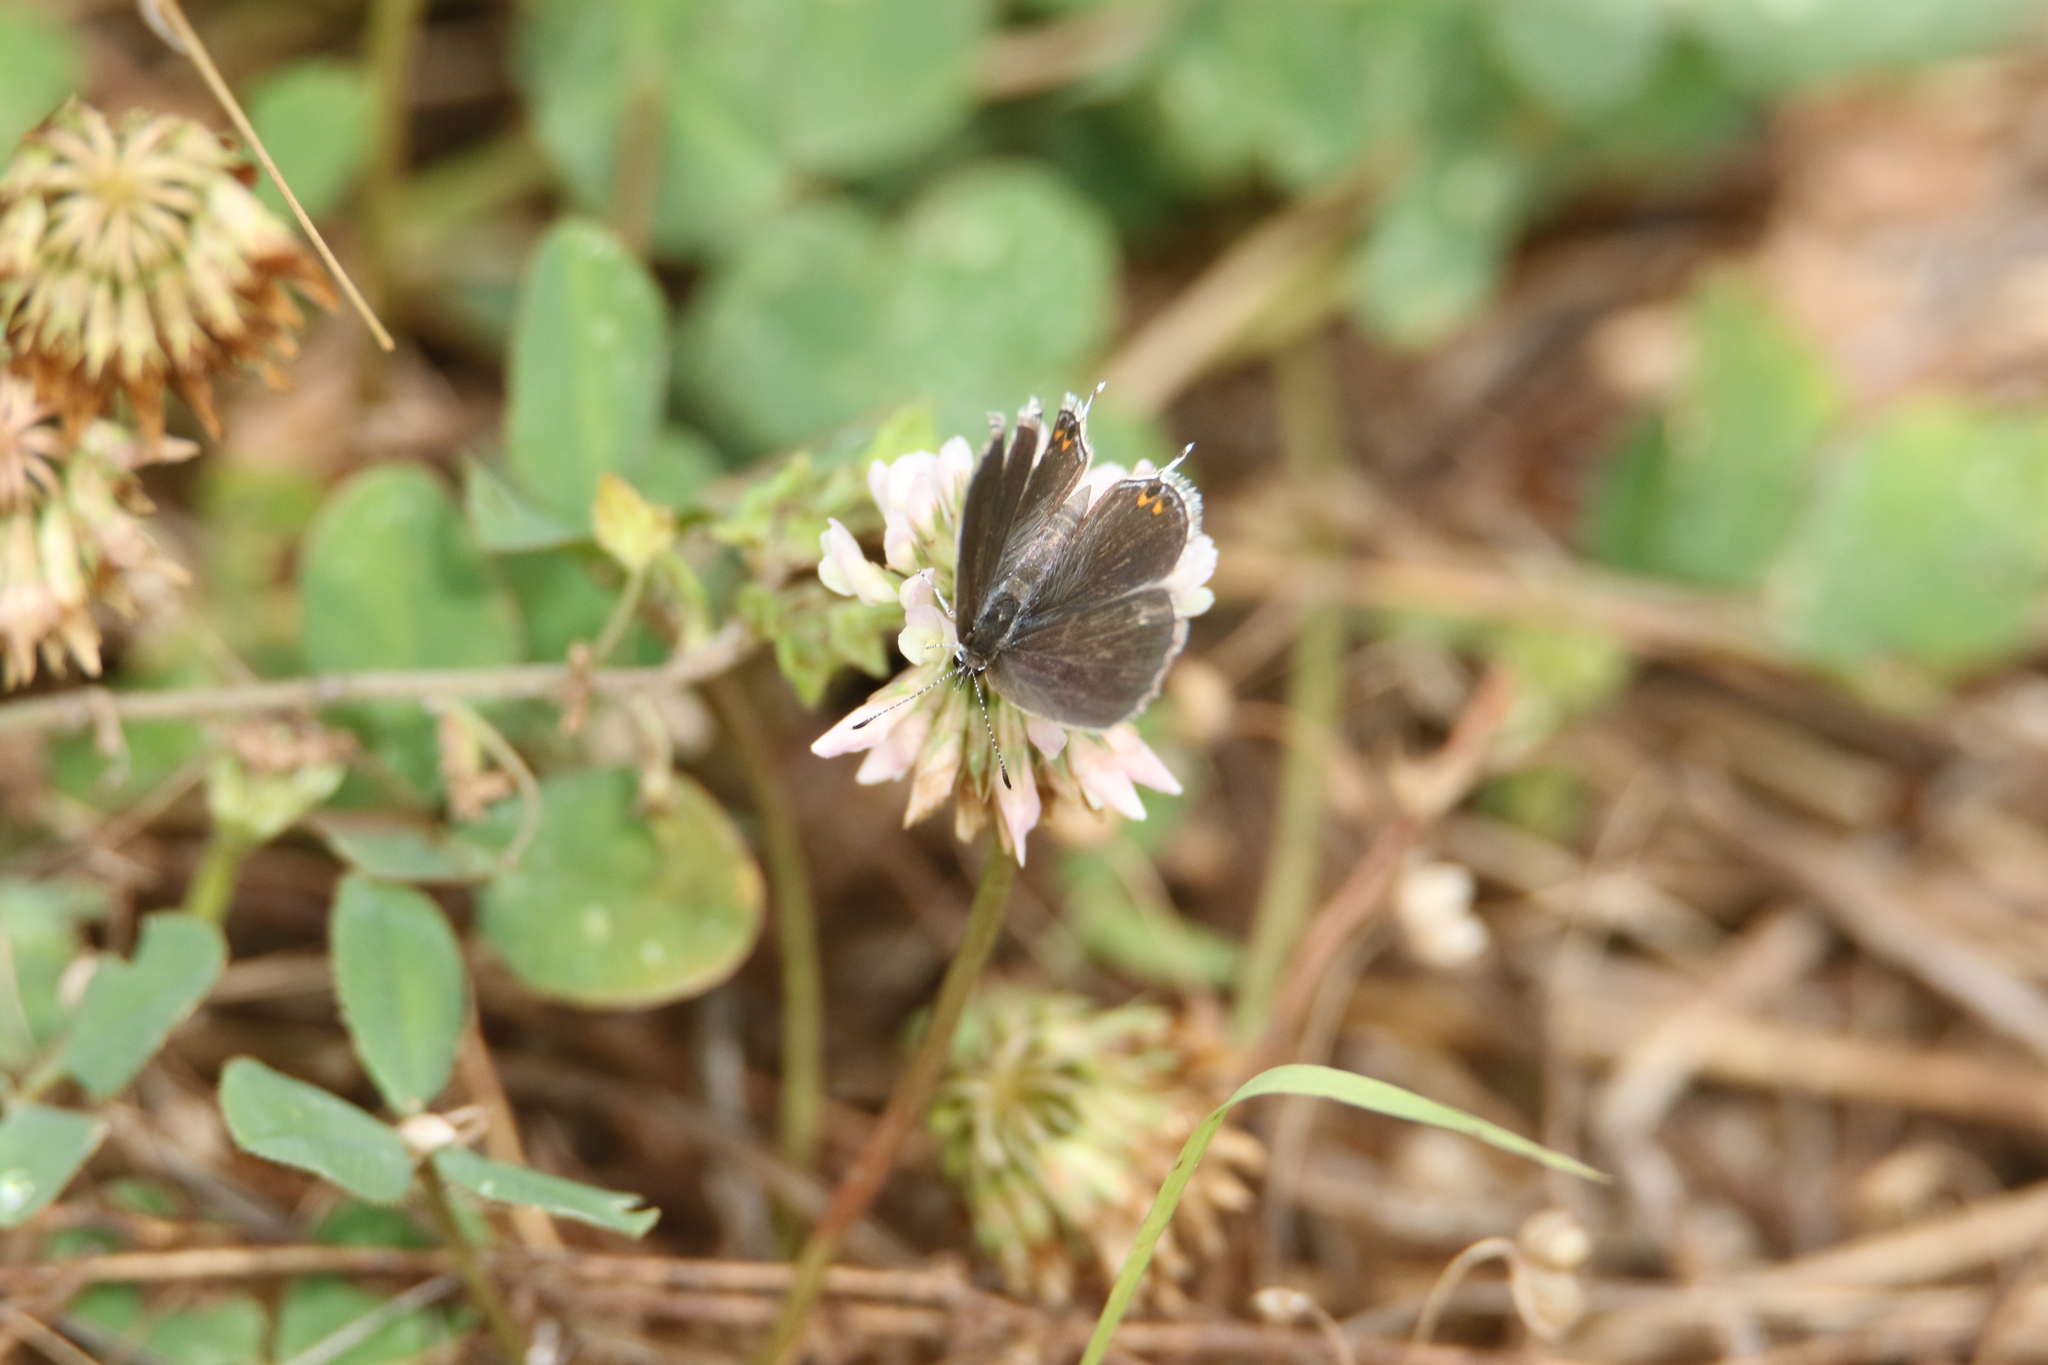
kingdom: Animalia
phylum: Arthropoda
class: Insecta
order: Lepidoptera
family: Lycaenidae
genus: Elkalyce
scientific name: Elkalyce comyntas
